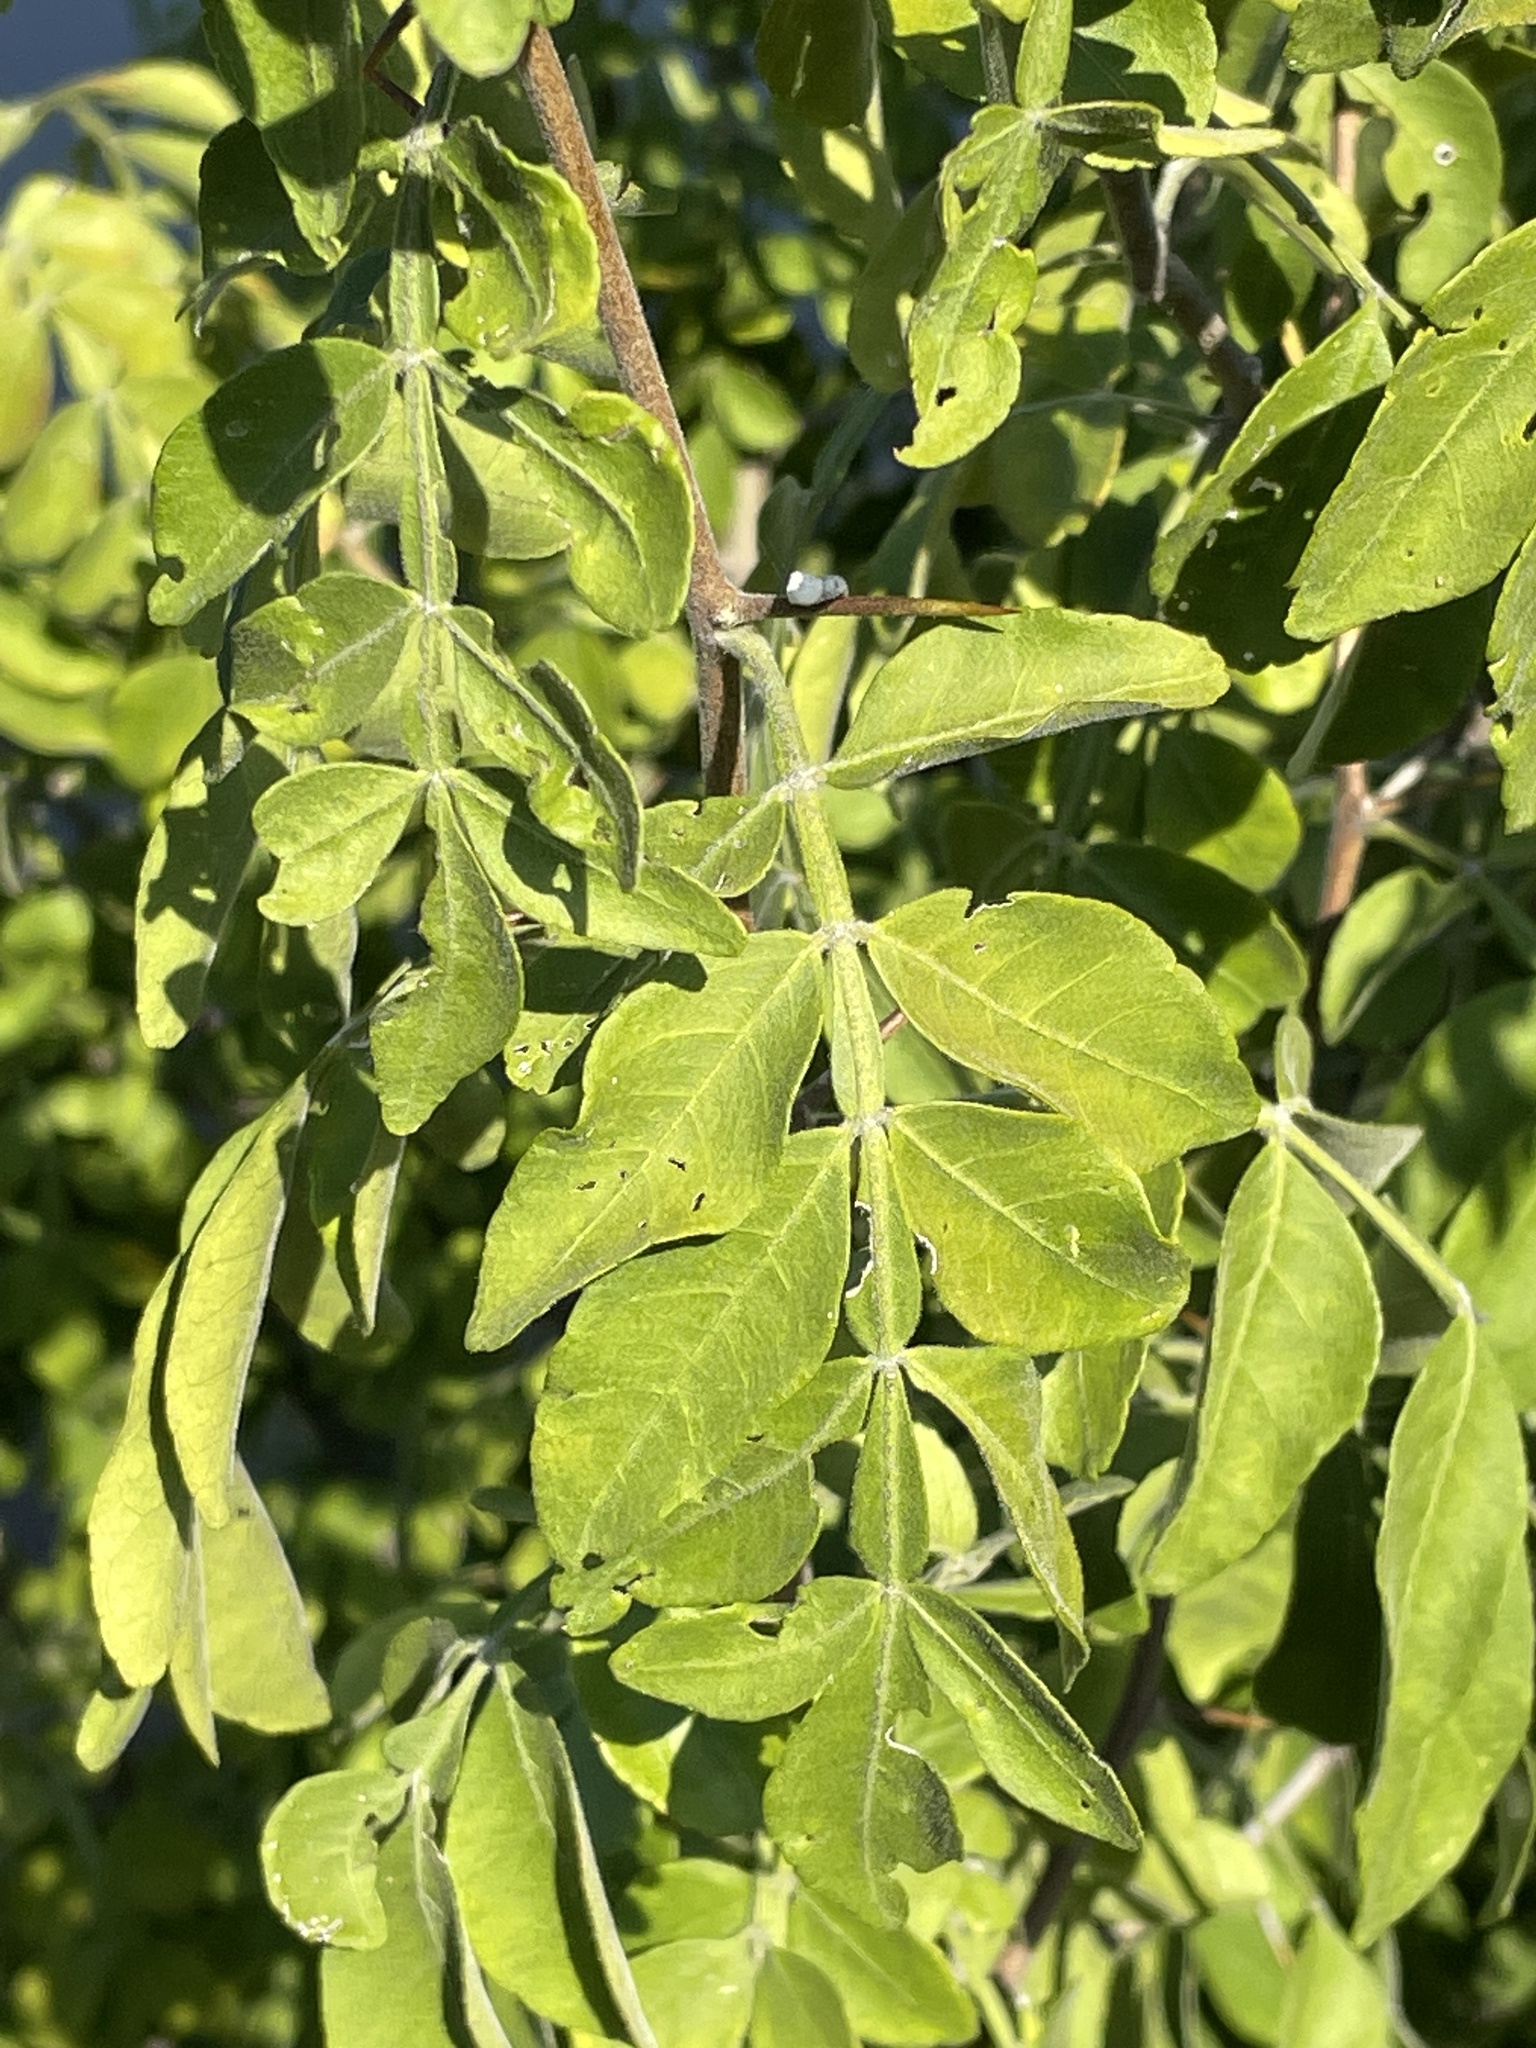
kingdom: Plantae
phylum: Tracheophyta
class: Magnoliopsida
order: Sapindales
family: Rutaceae
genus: Citropsis
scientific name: Citropsis daweana
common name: Mozambique-cherry-orange
